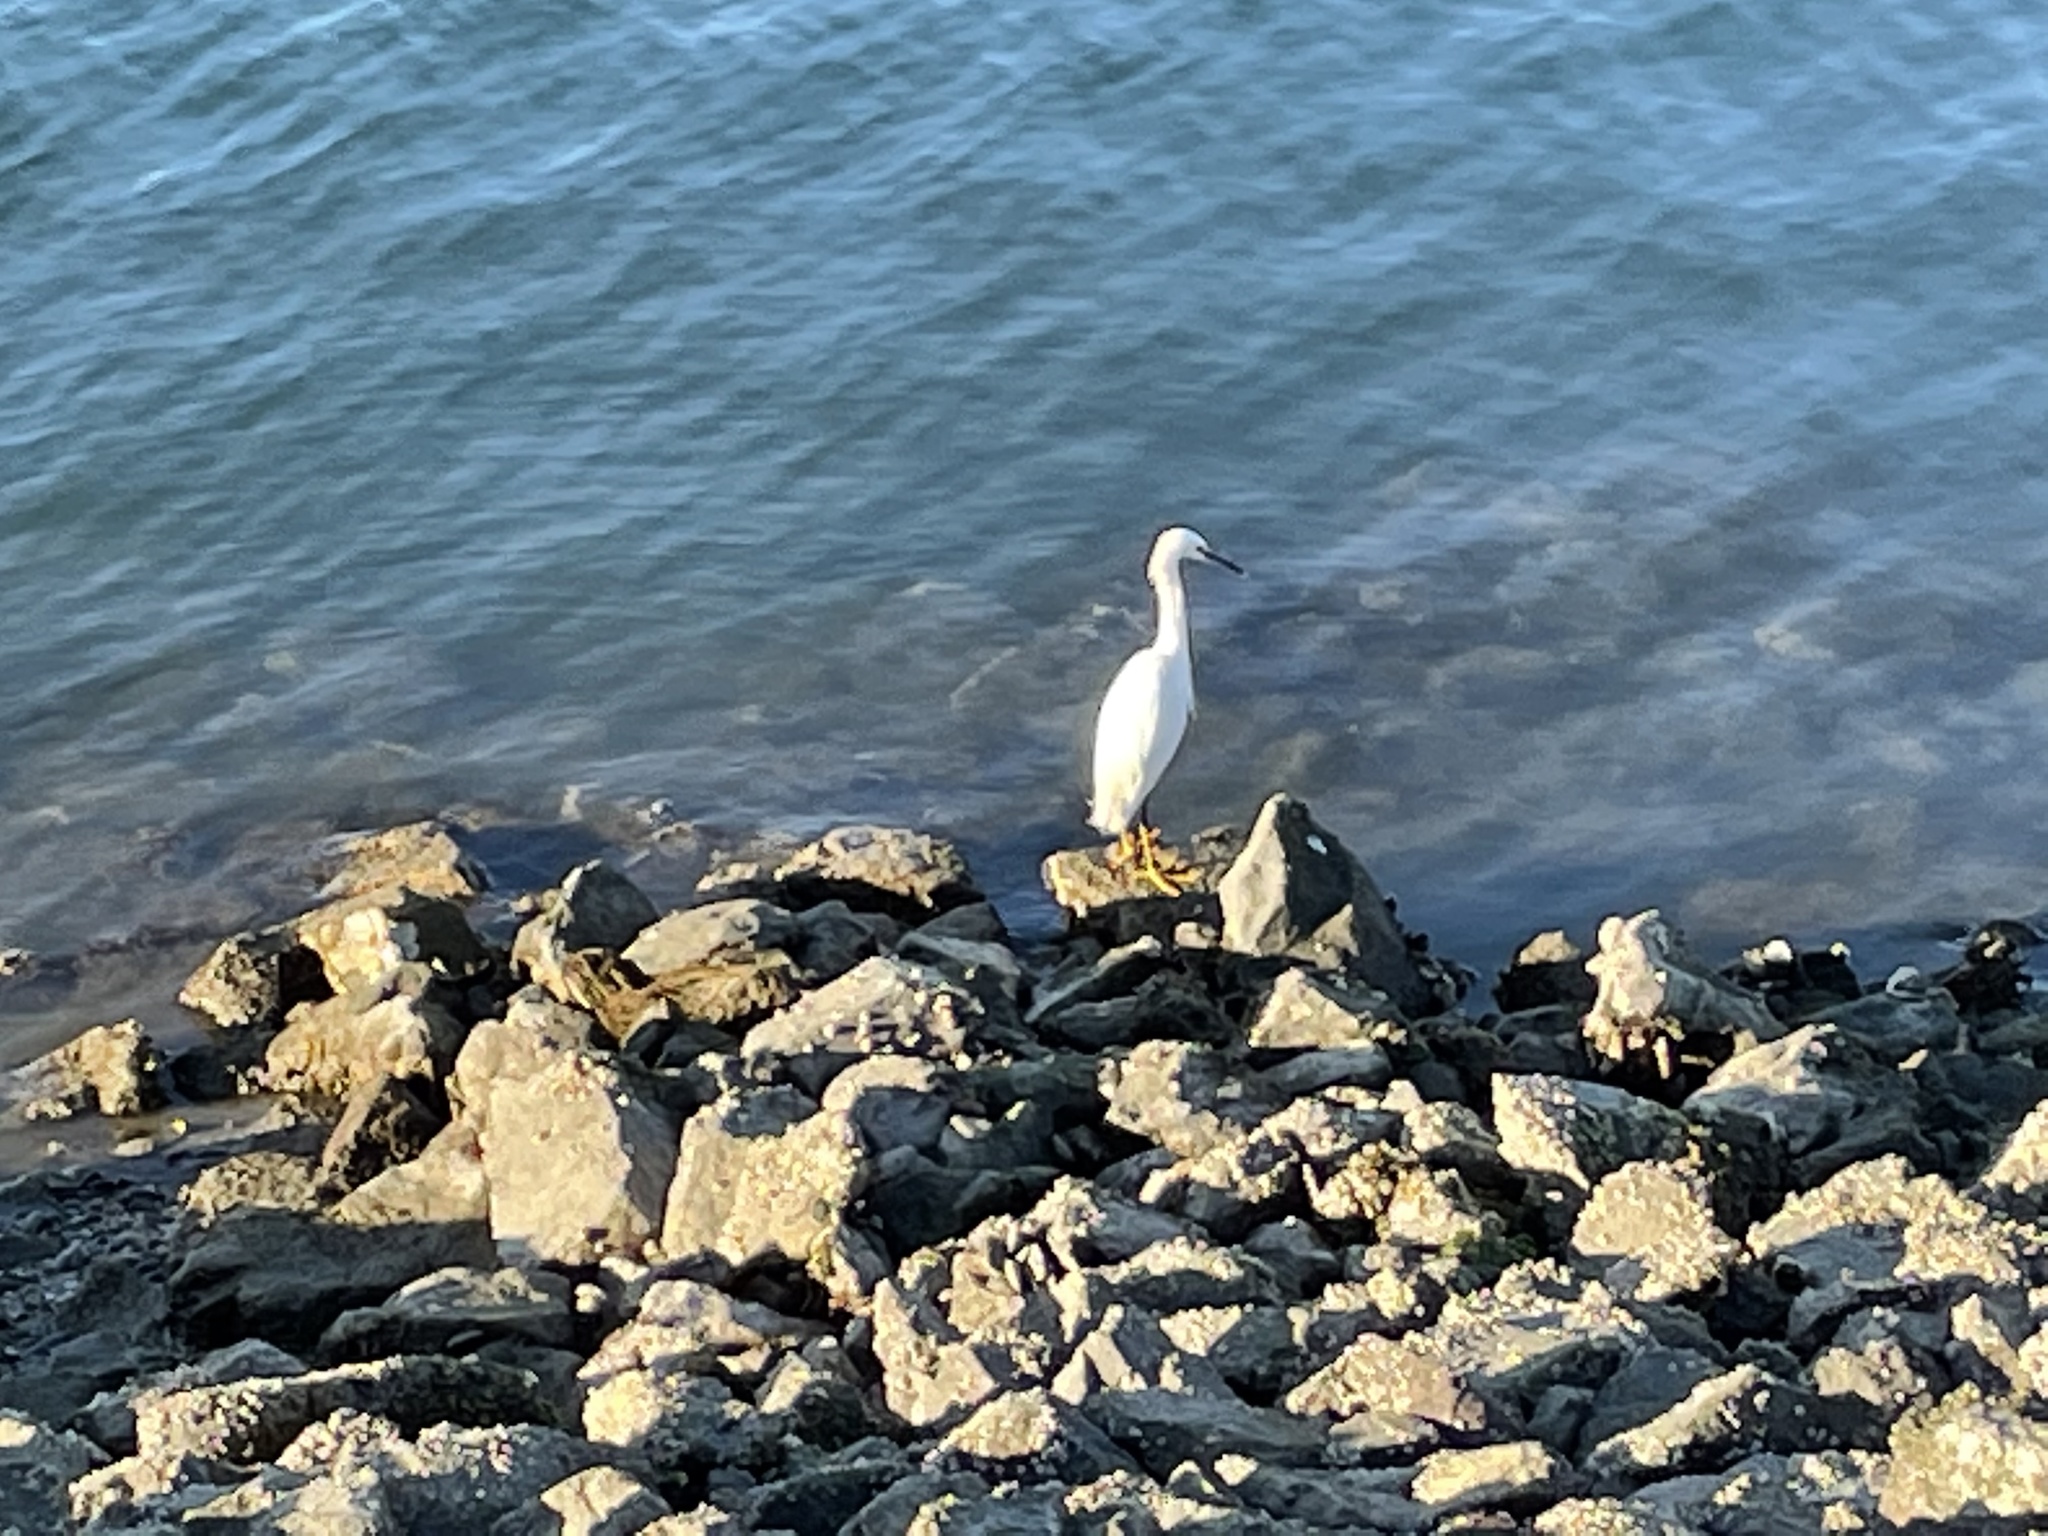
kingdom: Animalia
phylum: Chordata
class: Aves
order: Pelecaniformes
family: Ardeidae
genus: Egretta
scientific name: Egretta thula
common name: Snowy egret
